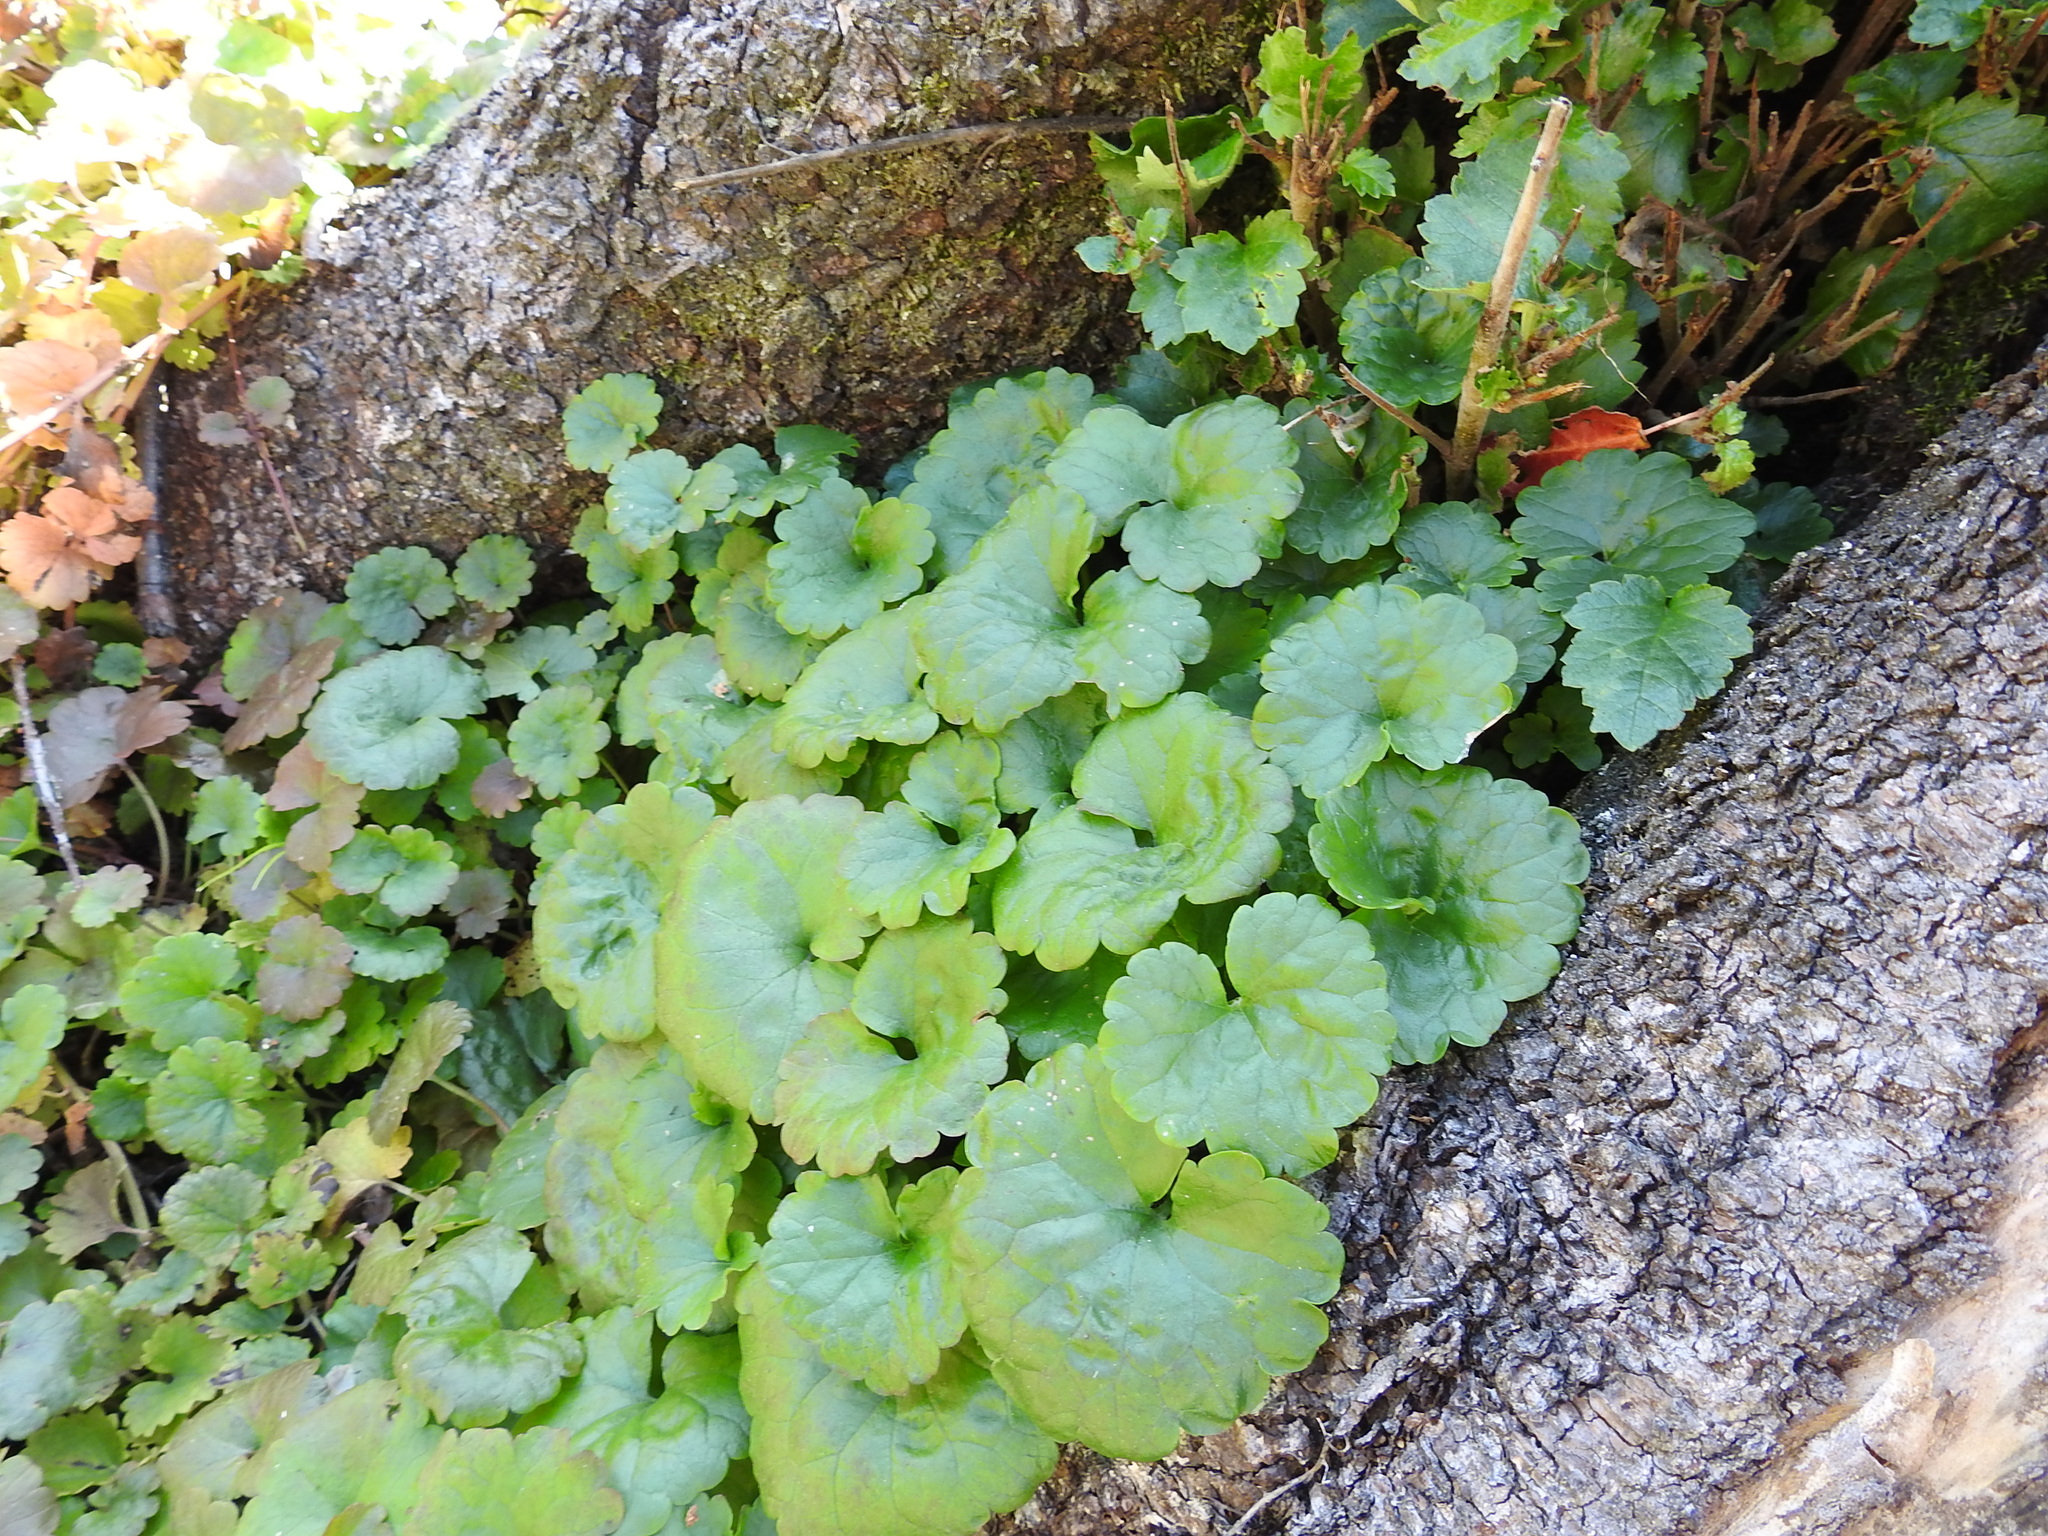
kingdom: Plantae
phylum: Tracheophyta
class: Magnoliopsida
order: Lamiales
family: Lamiaceae
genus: Glechoma
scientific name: Glechoma hederacea
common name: Ground ivy
